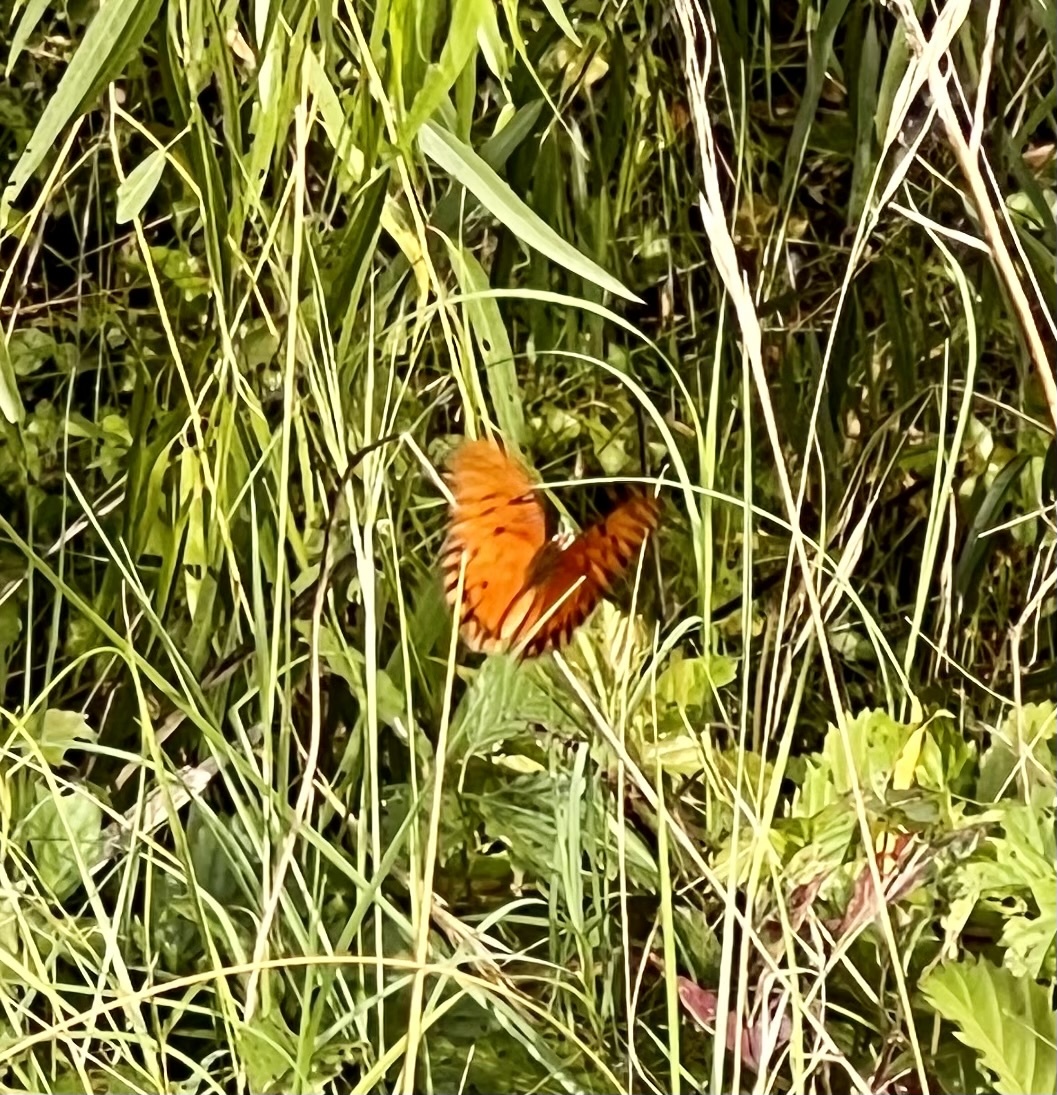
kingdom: Animalia
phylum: Arthropoda
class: Insecta
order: Lepidoptera
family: Nymphalidae
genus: Dione
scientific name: Dione vanillae
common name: Gulf fritillary
